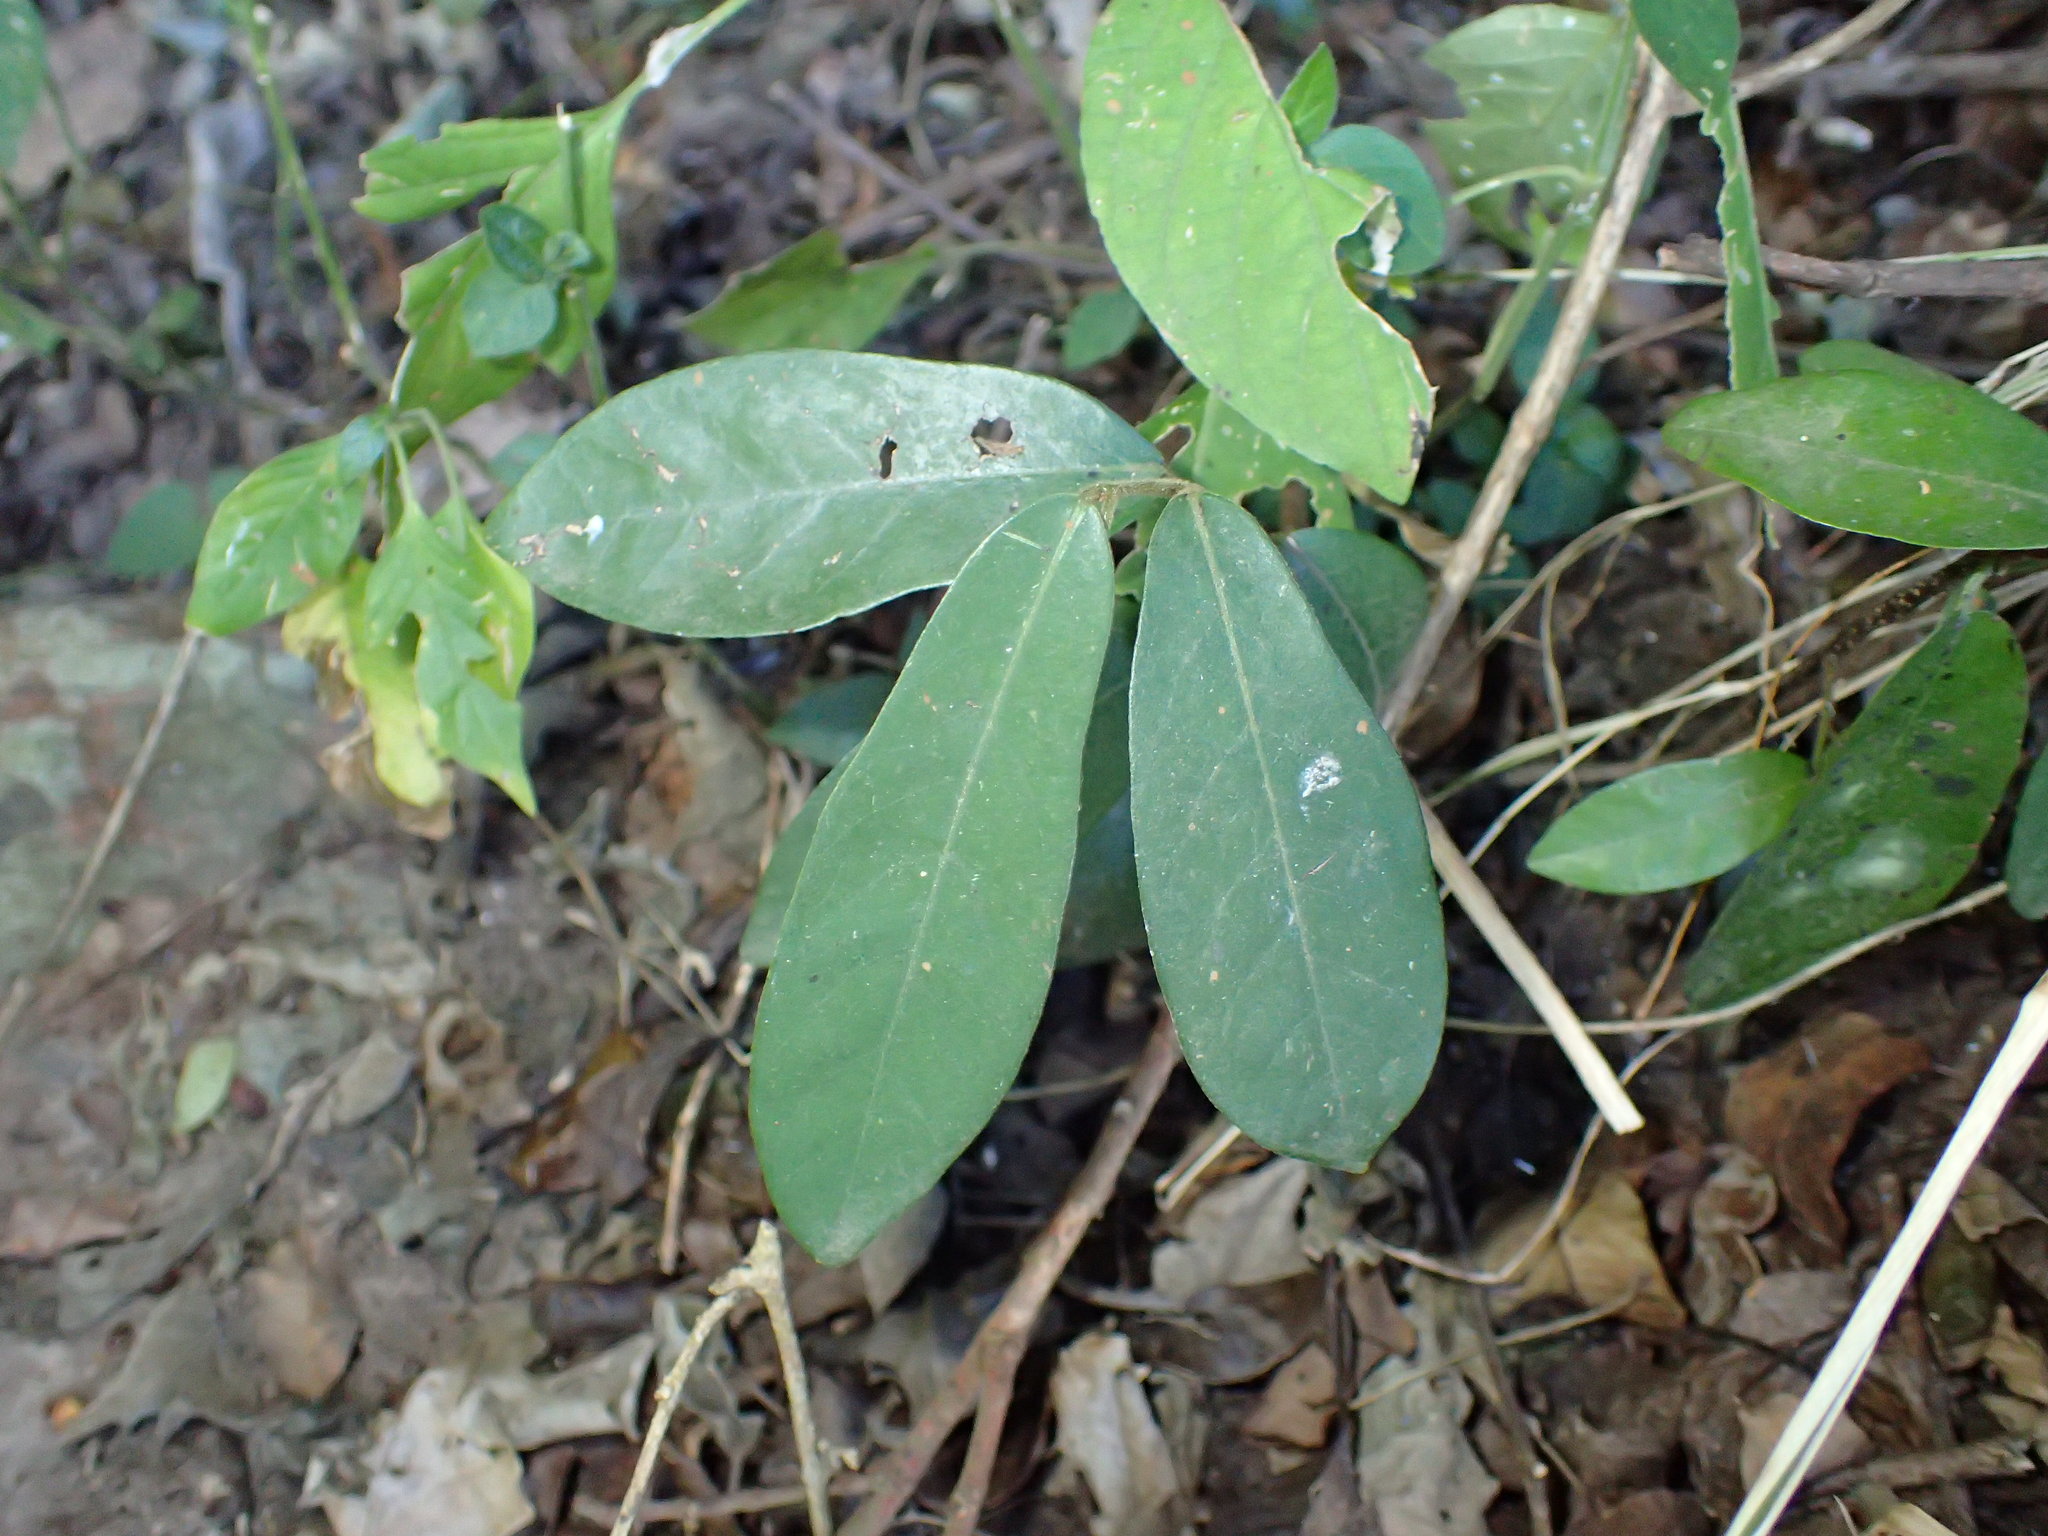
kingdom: Plantae
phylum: Tracheophyta
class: Magnoliopsida
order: Magnoliales
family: Annonaceae
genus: Monanthotaxis
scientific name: Monanthotaxis caffra
